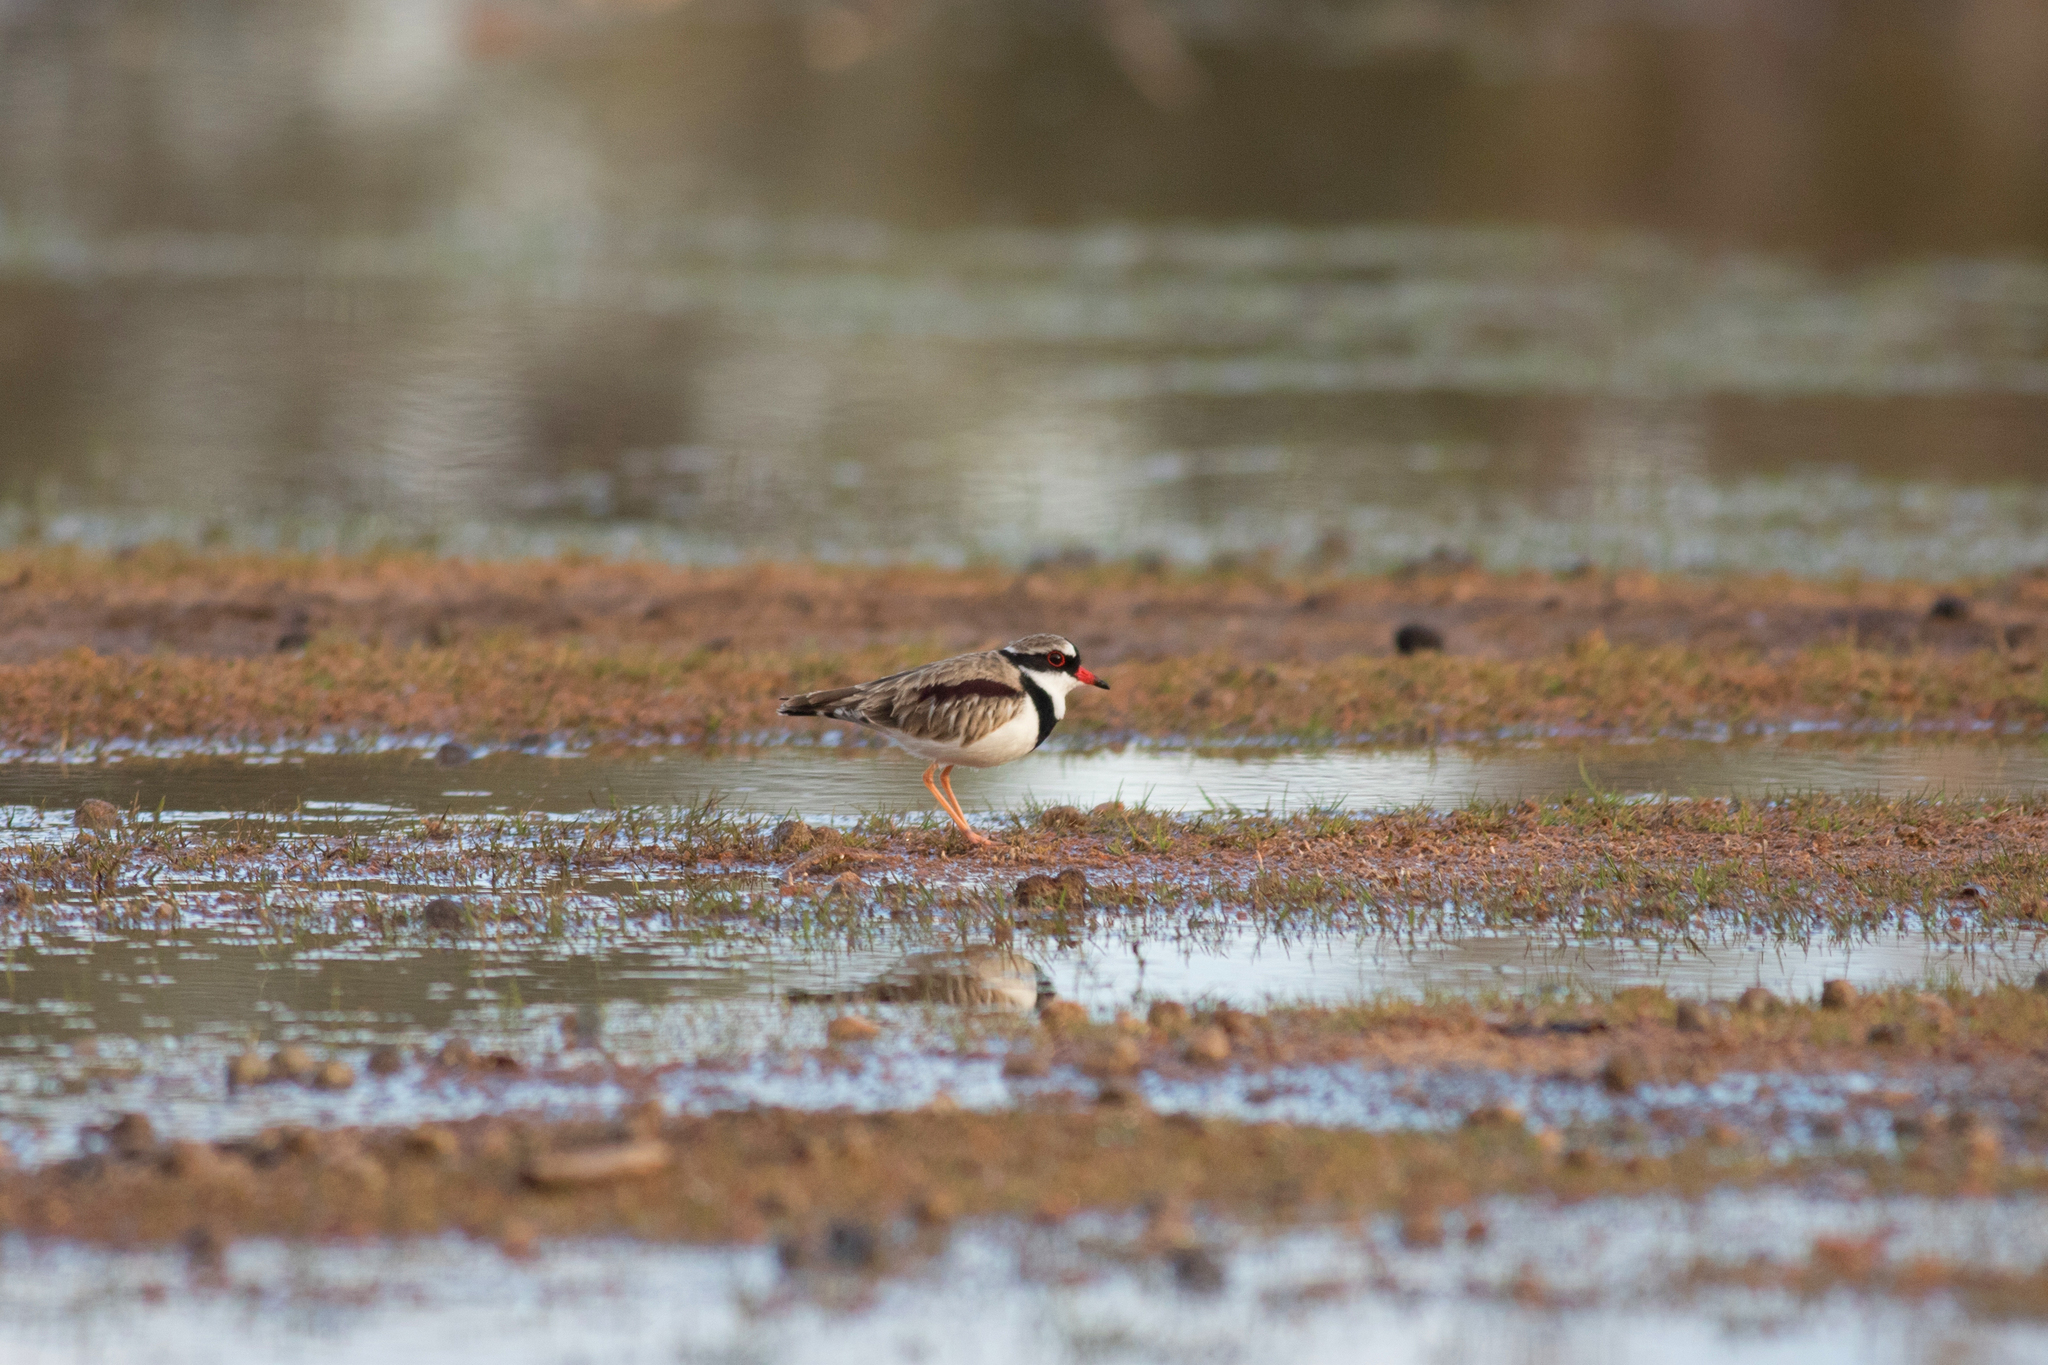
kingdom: Animalia
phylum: Chordata
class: Aves
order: Charadriiformes
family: Charadriidae
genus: Elseyornis
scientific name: Elseyornis melanops
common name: Black-fronted dotterel
